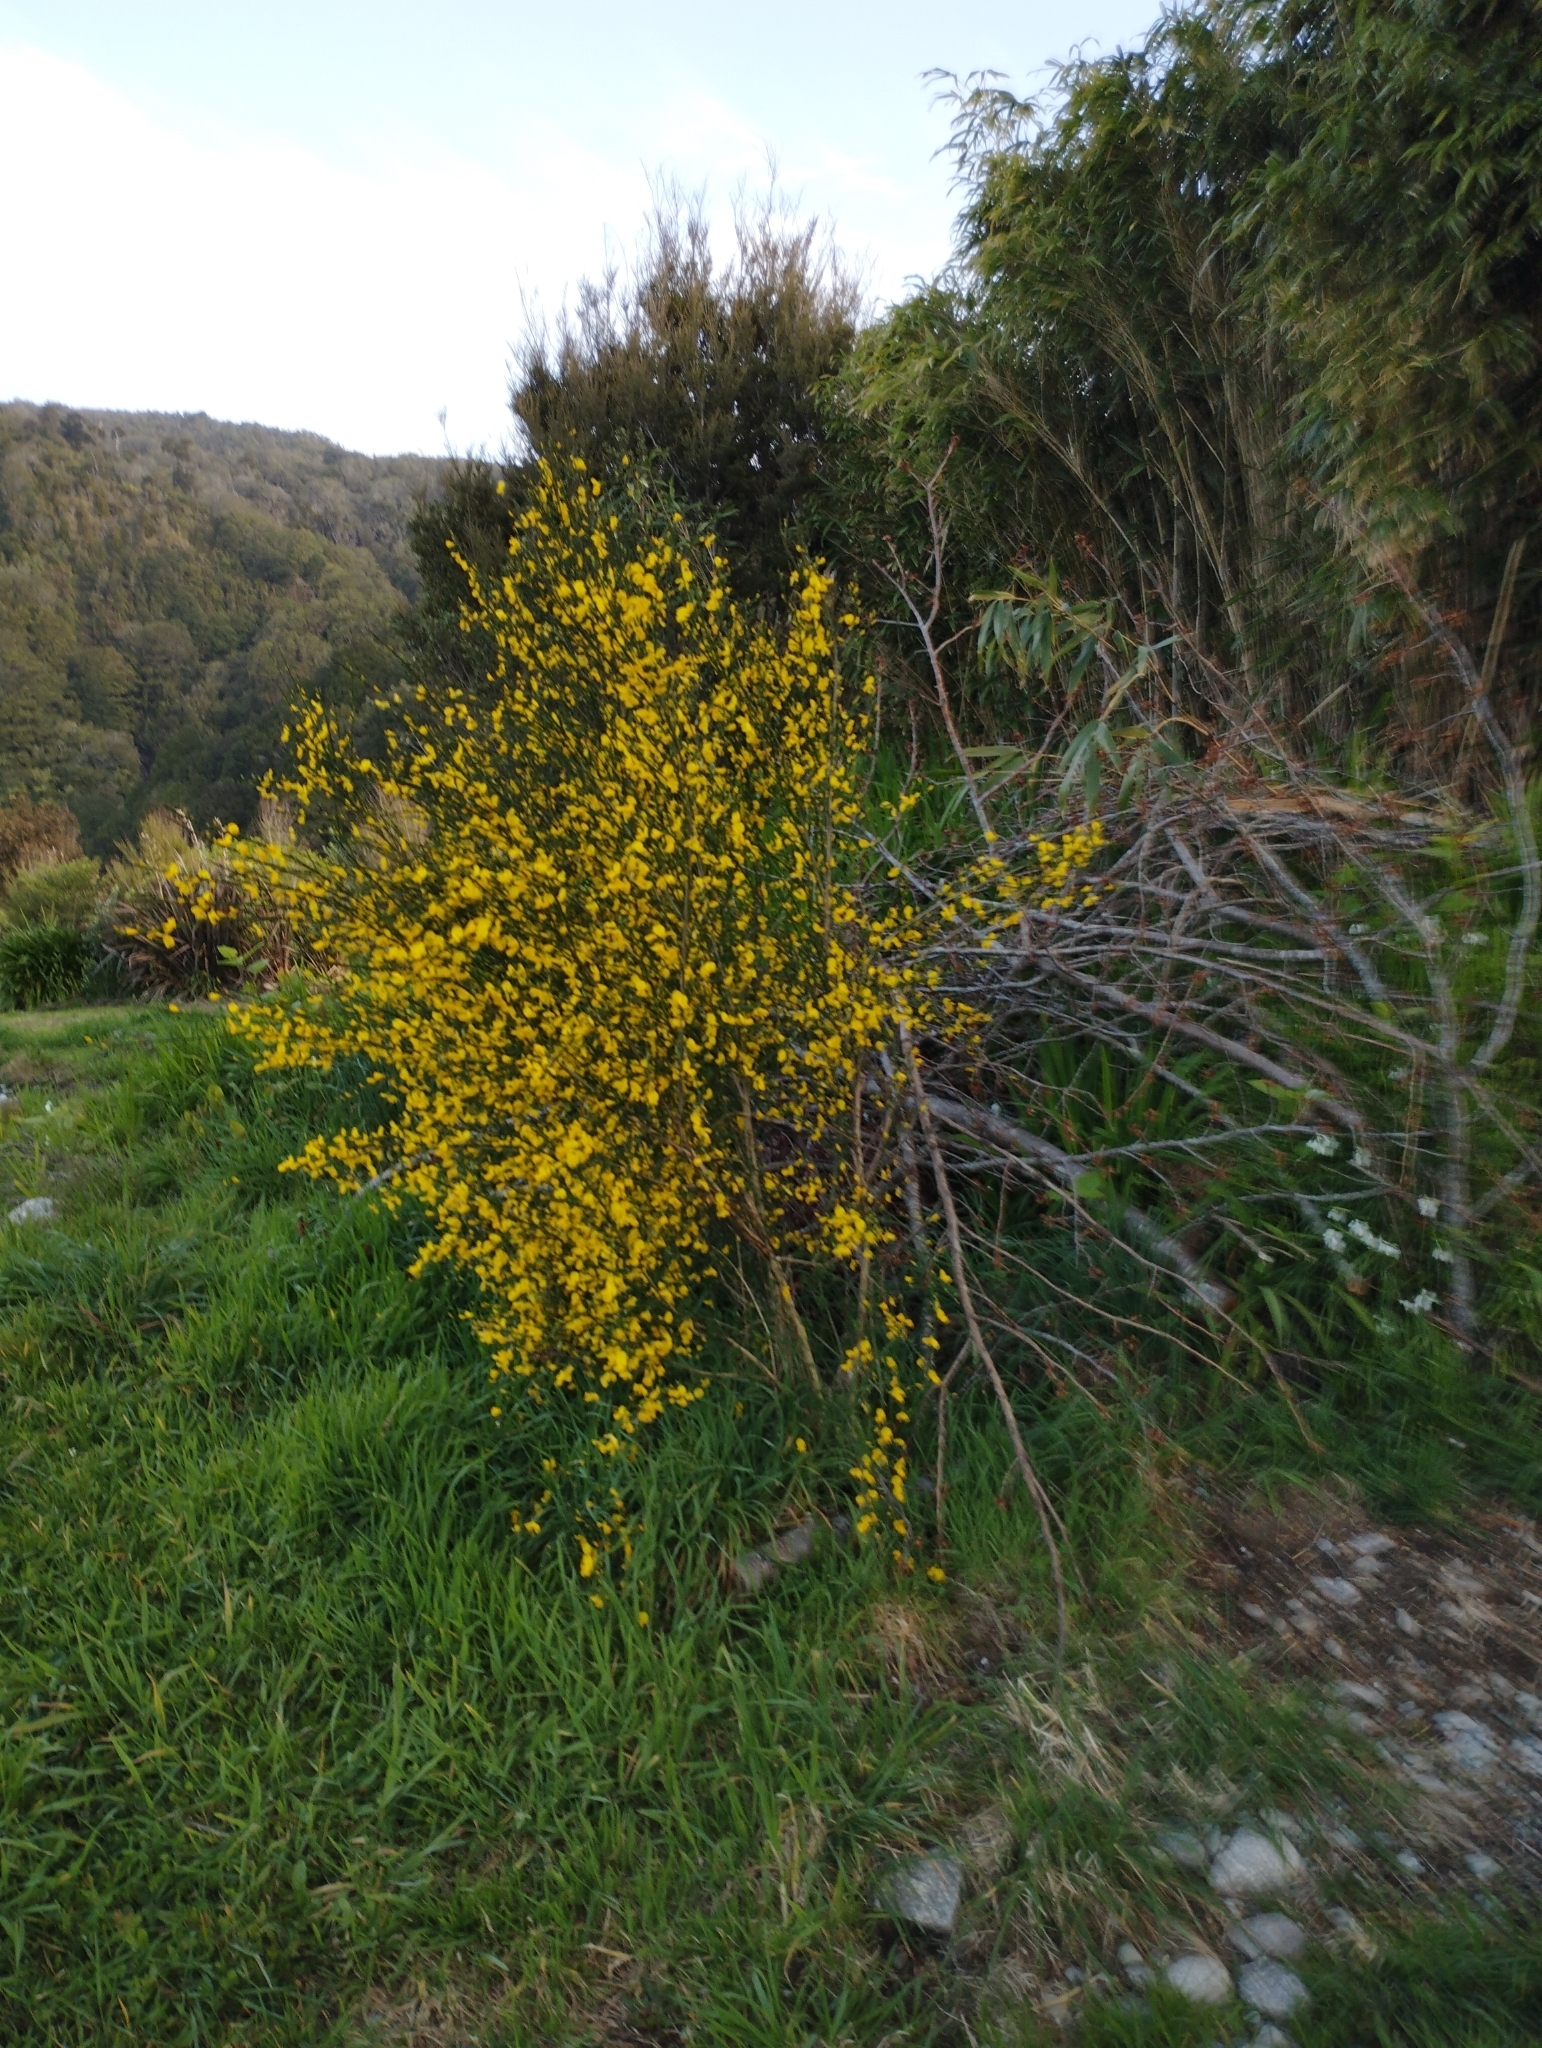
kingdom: Plantae
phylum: Tracheophyta
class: Magnoliopsida
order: Fabales
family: Fabaceae
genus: Cytisus
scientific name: Cytisus scoparius
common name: Scotch broom
